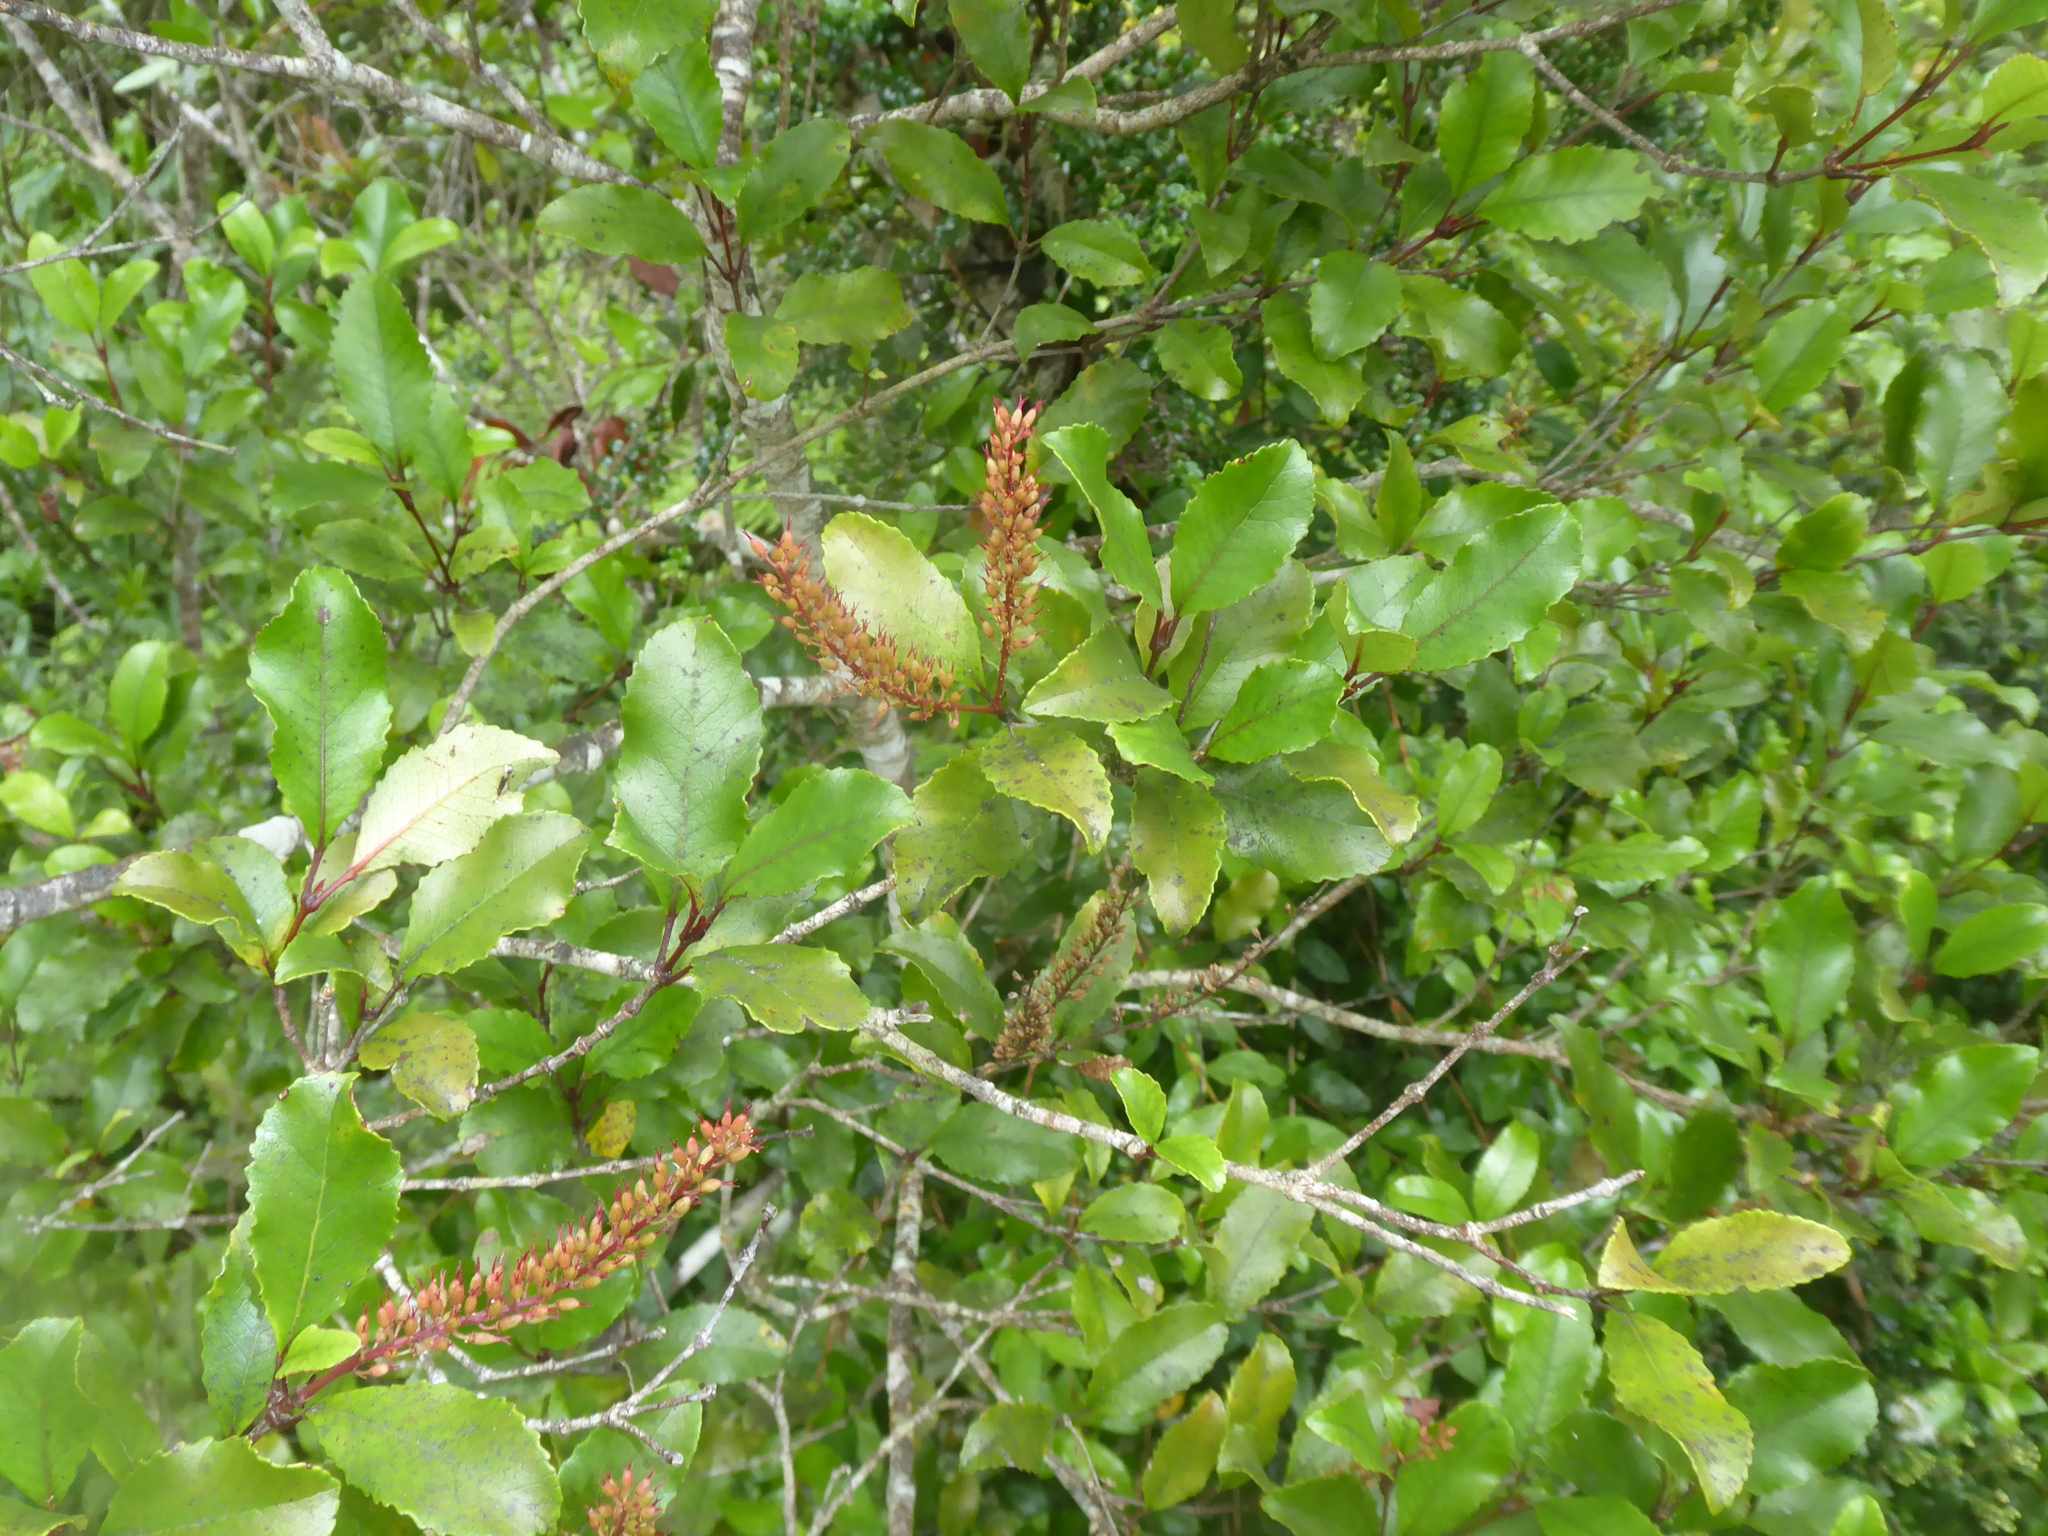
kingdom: Plantae
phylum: Tracheophyta
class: Magnoliopsida
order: Oxalidales
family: Cunoniaceae
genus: Pterophylla
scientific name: Pterophylla racemosa
